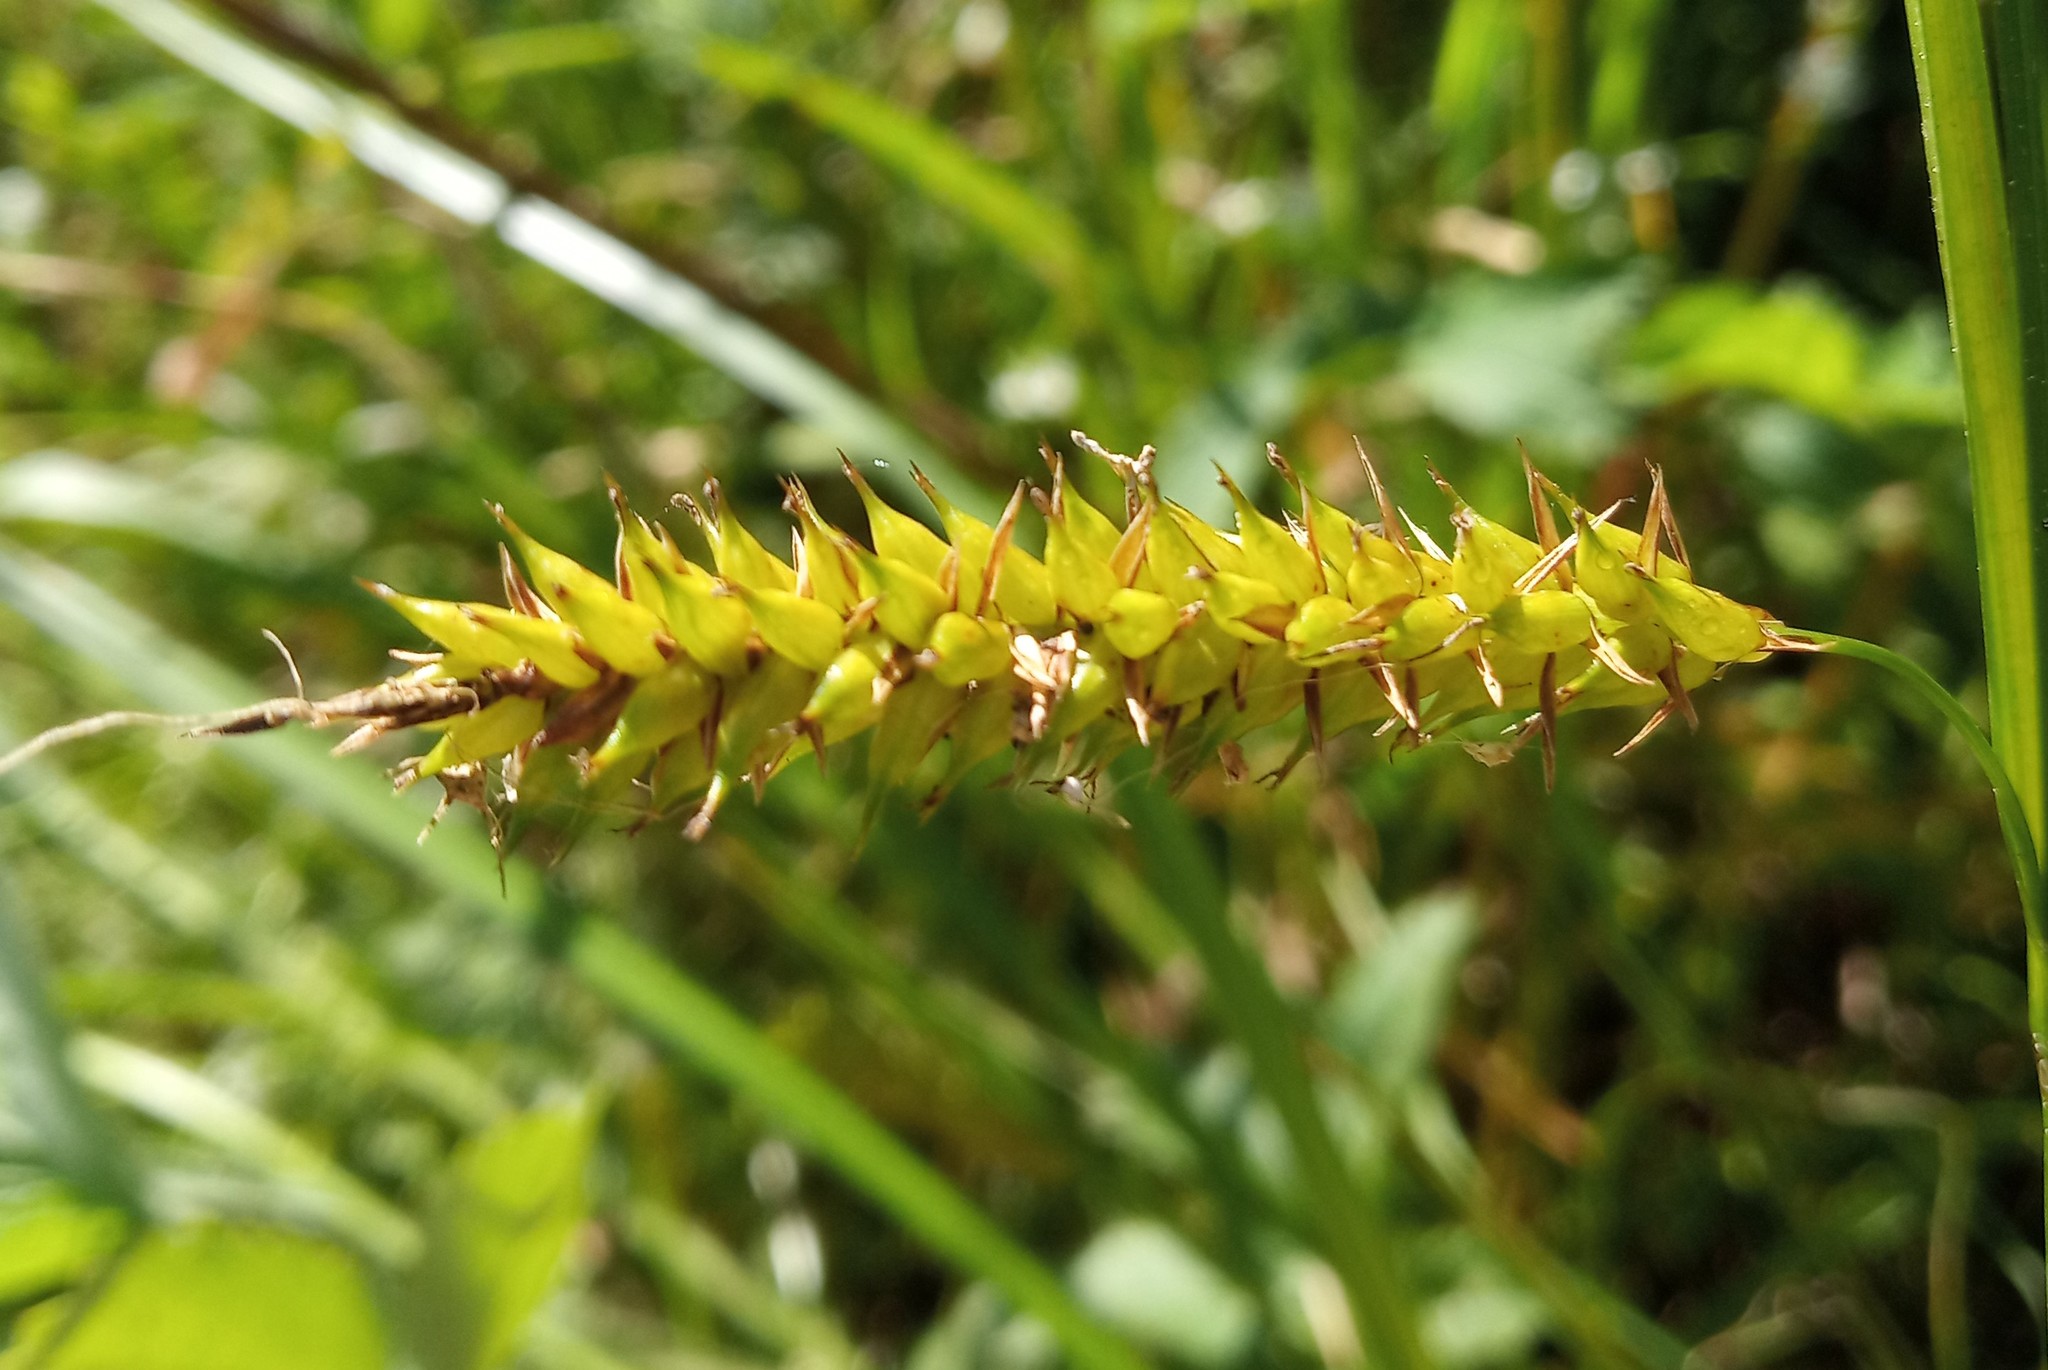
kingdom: Plantae
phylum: Tracheophyta
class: Liliopsida
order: Poales
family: Cyperaceae
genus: Carex
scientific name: Carex vesicaria
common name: Bladder-sedge
